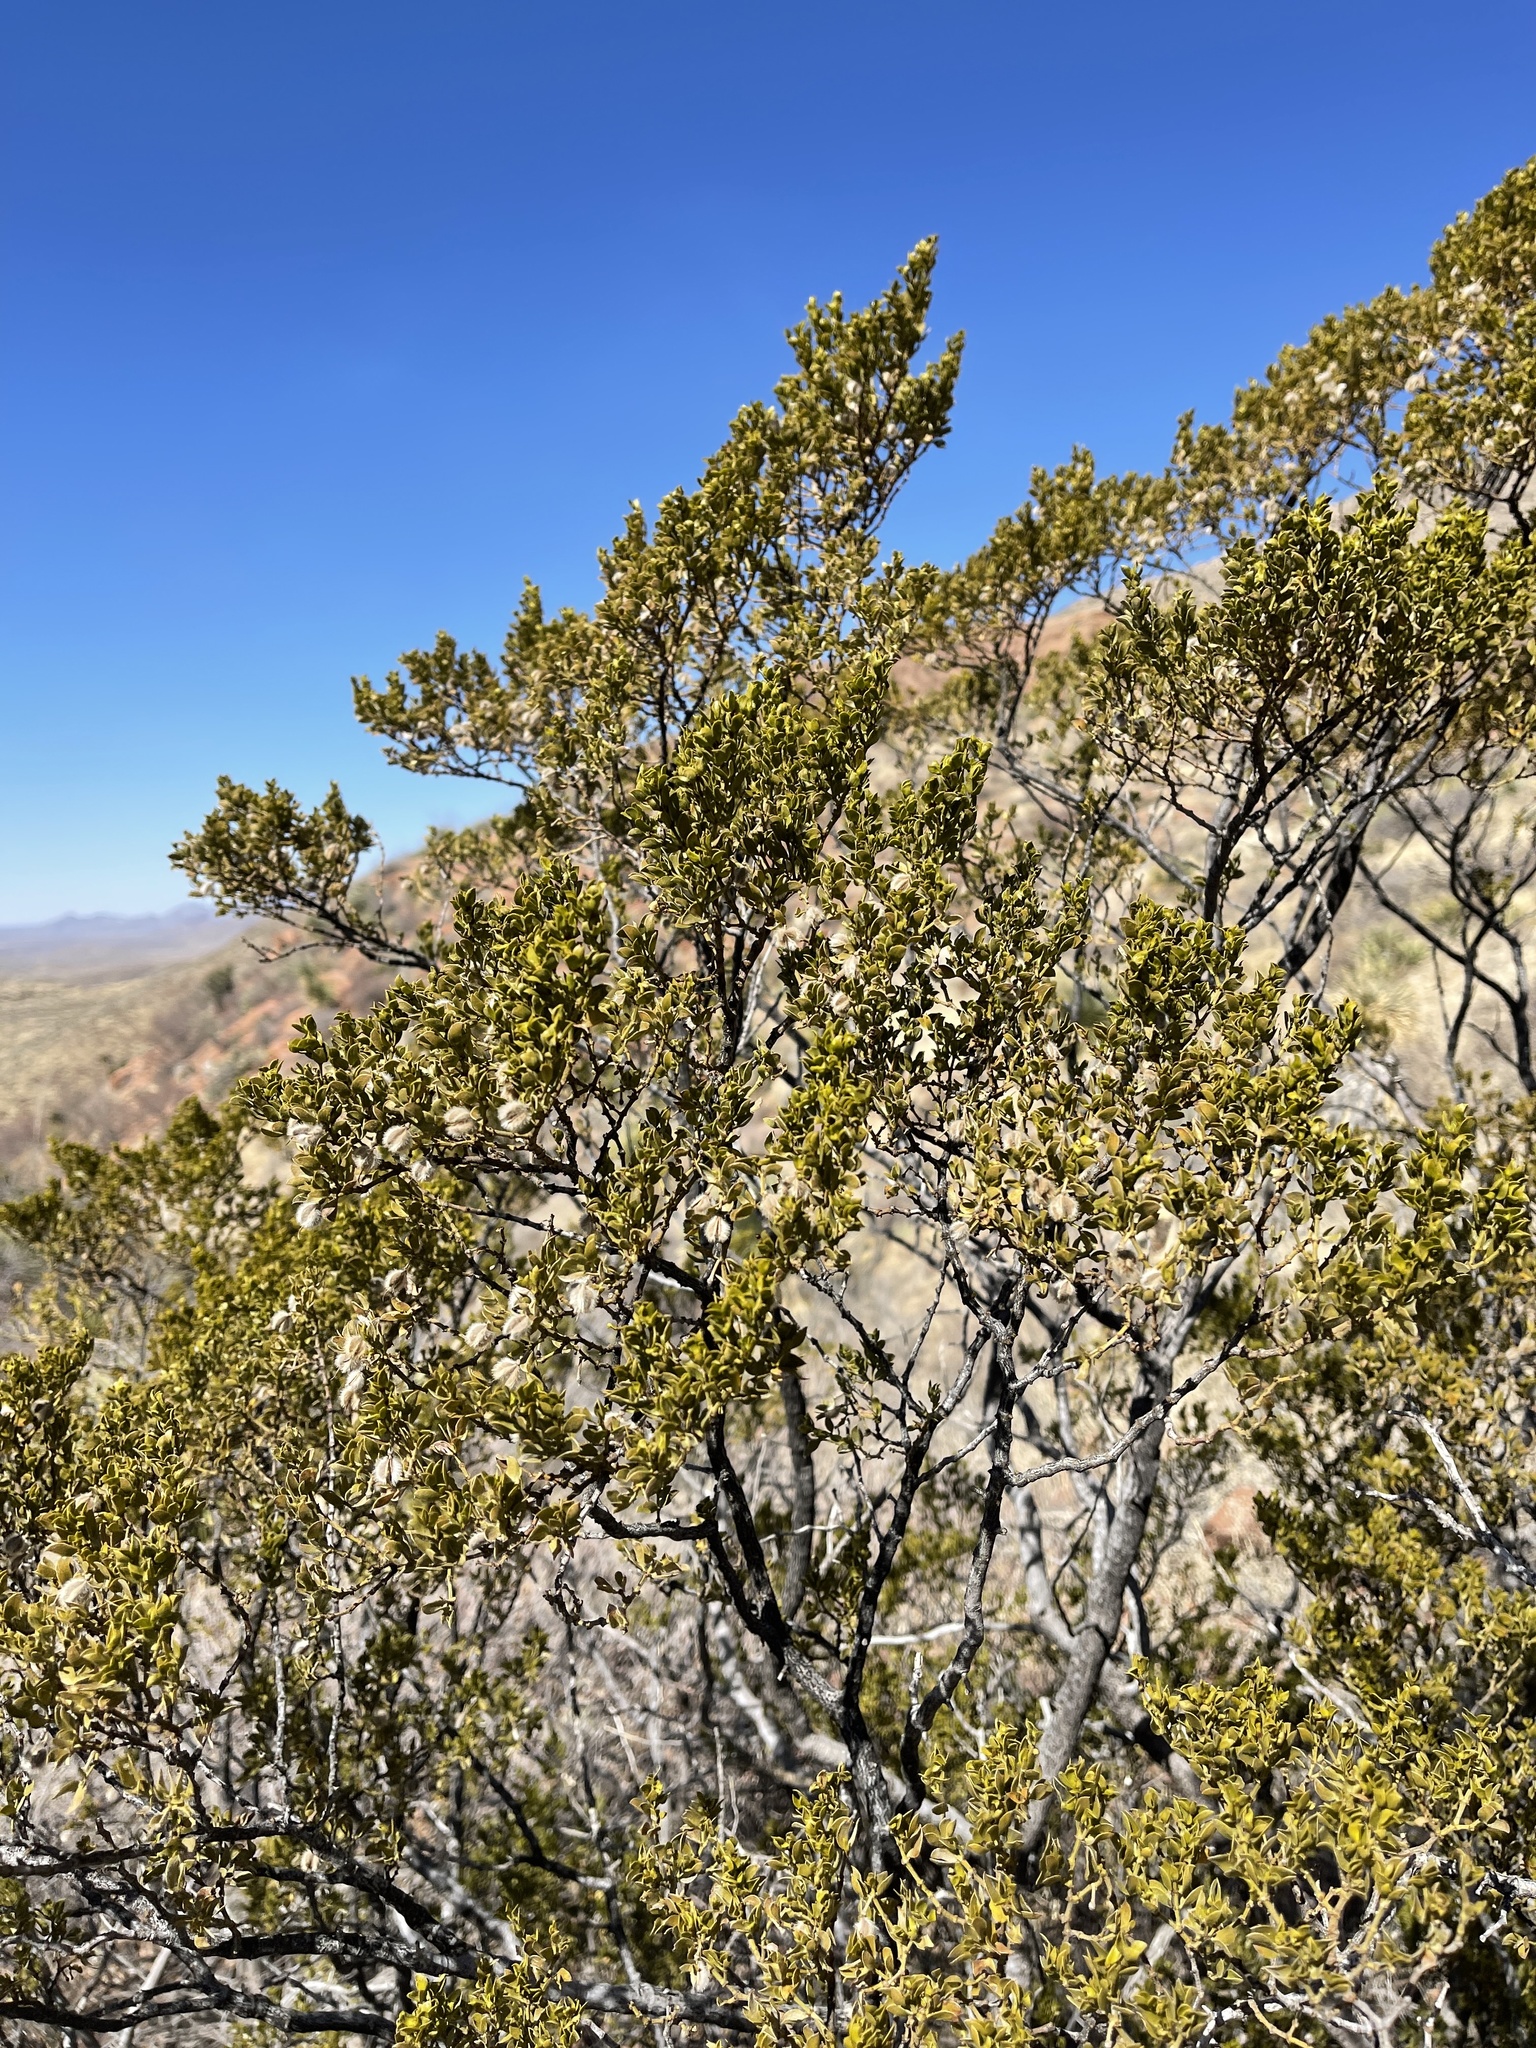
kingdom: Plantae
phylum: Tracheophyta
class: Magnoliopsida
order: Zygophyllales
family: Zygophyllaceae
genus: Larrea
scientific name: Larrea tridentata
